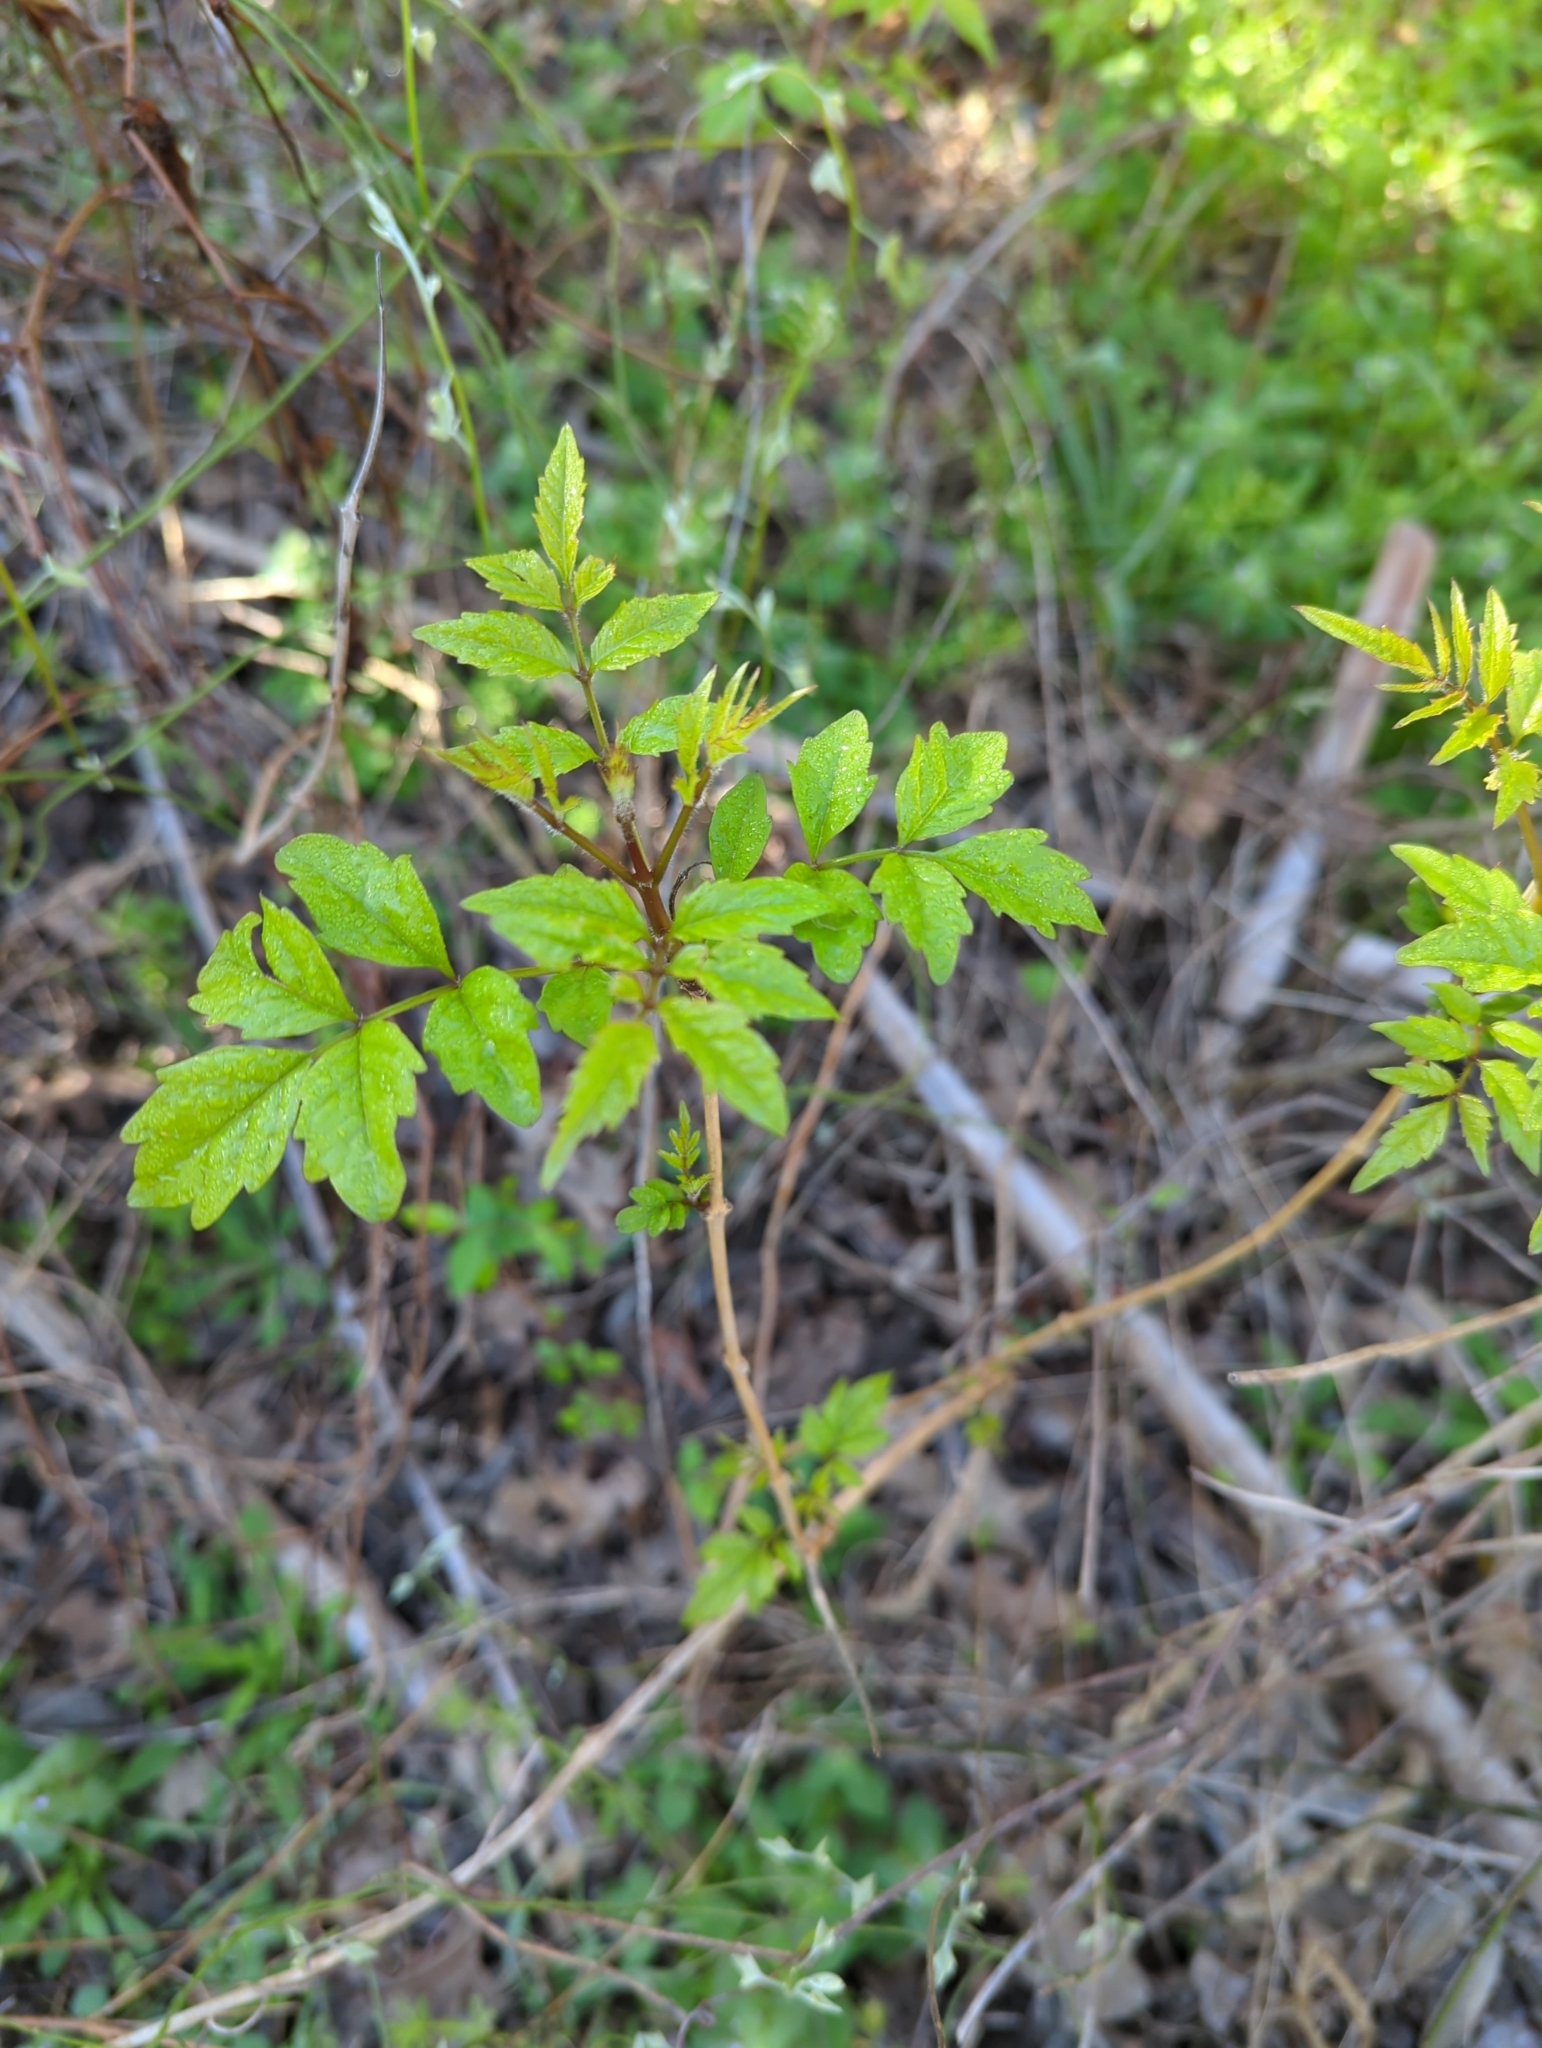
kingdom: Plantae
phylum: Tracheophyta
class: Magnoliopsida
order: Lamiales
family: Bignoniaceae
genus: Campsis
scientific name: Campsis radicans
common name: Trumpet-creeper
